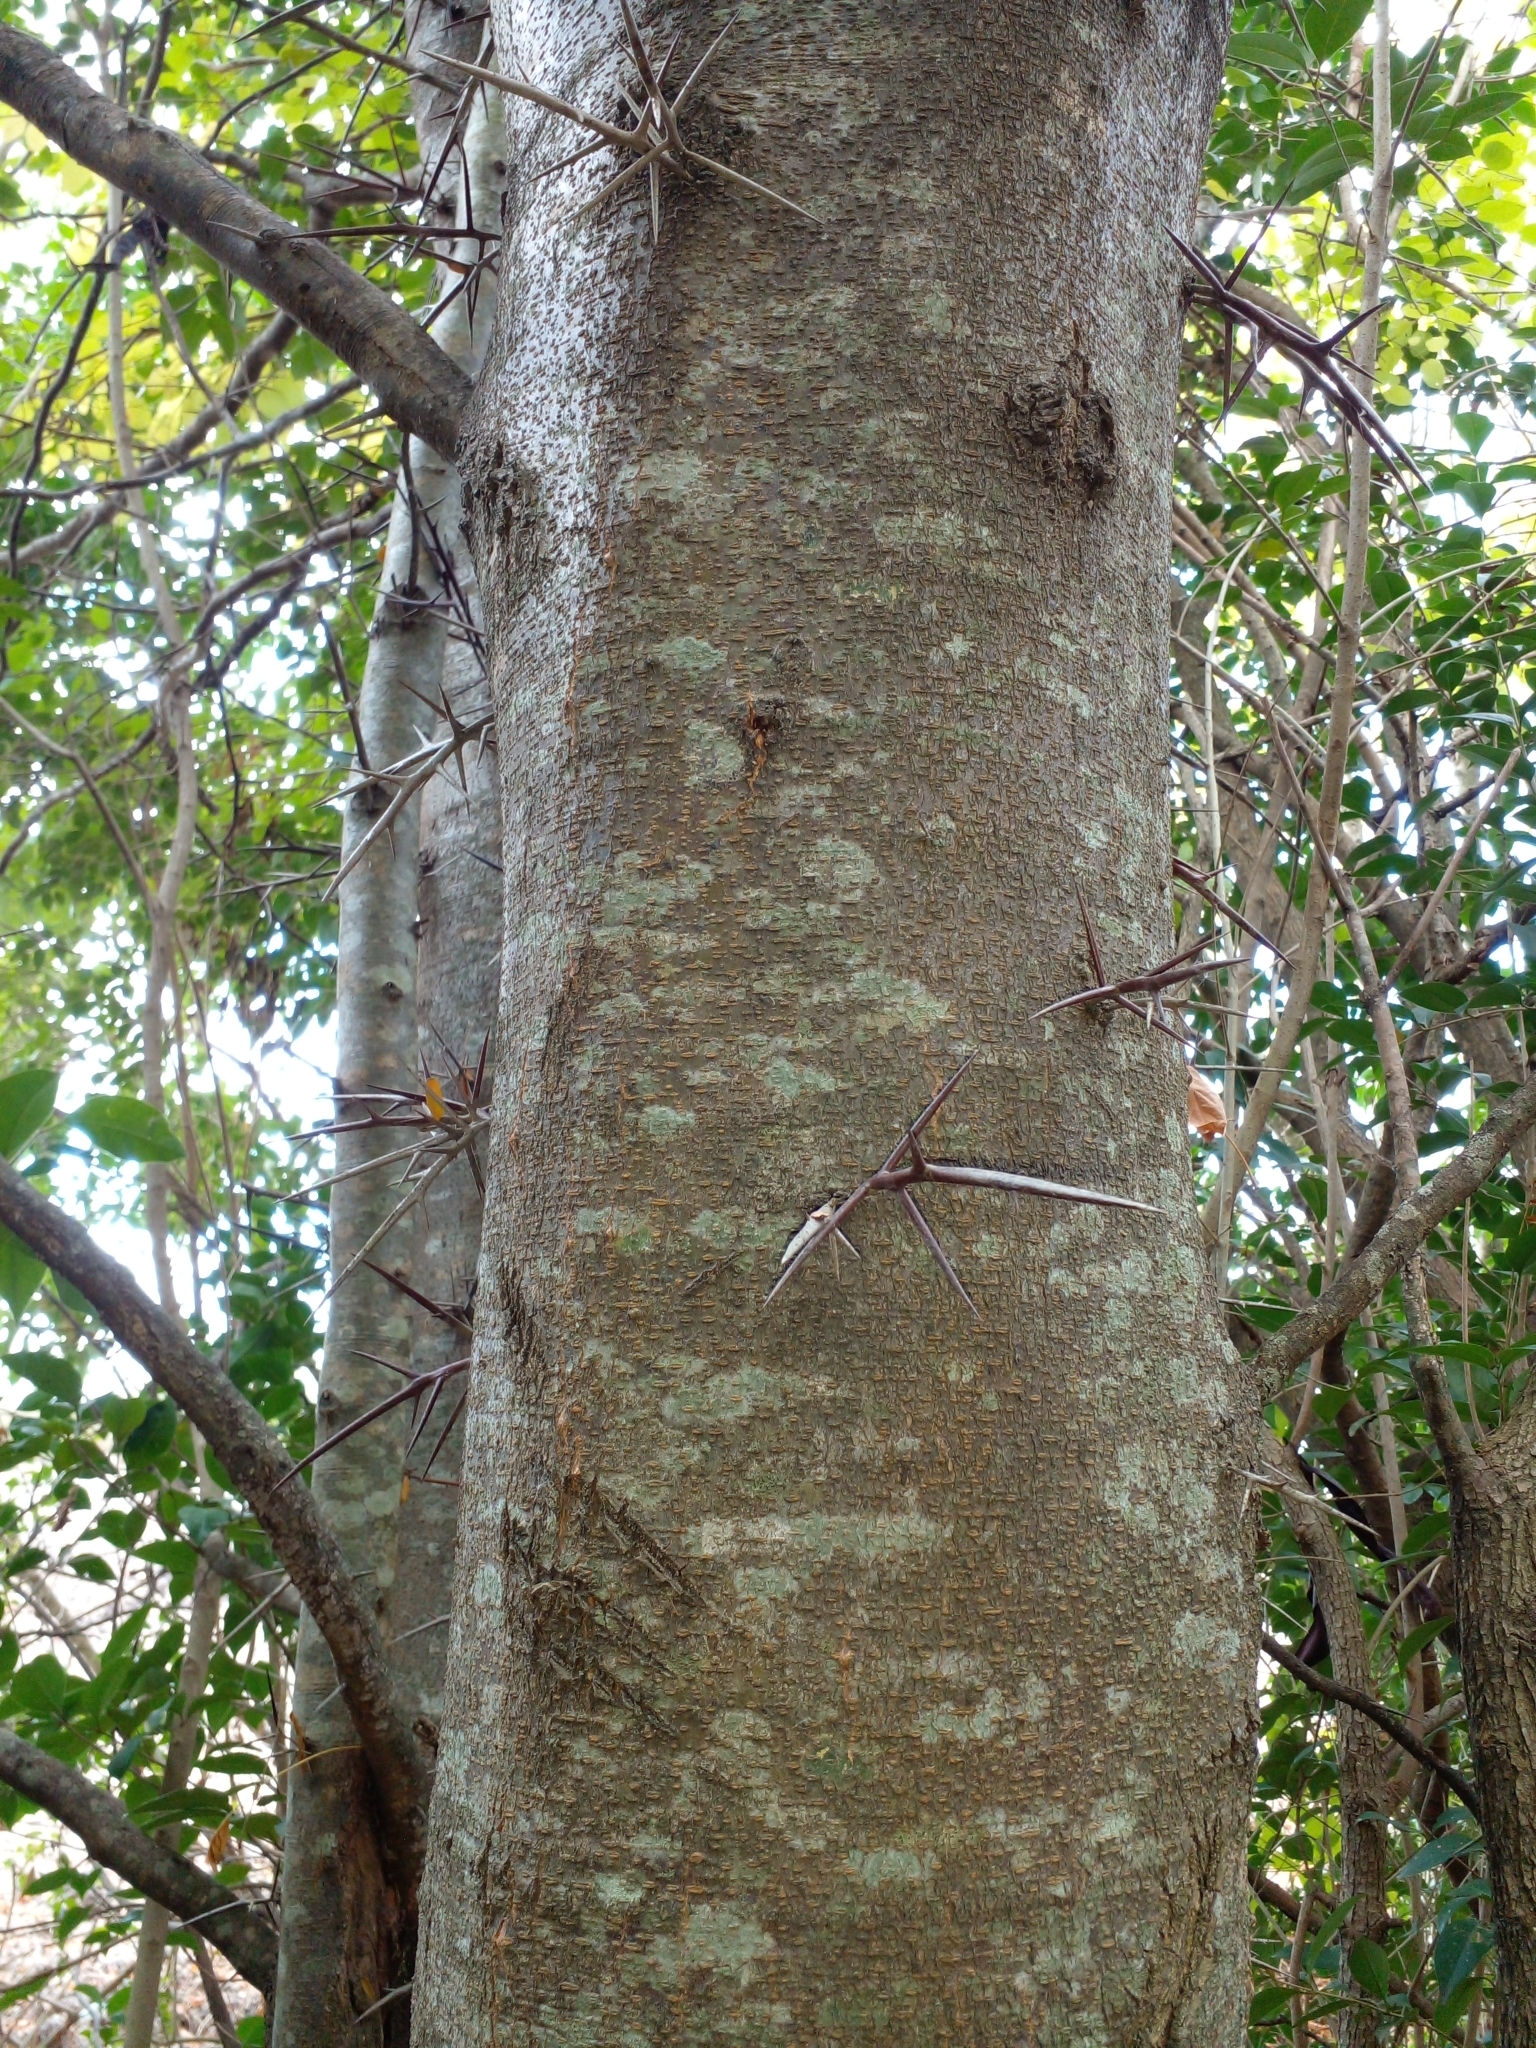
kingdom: Plantae
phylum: Tracheophyta
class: Magnoliopsida
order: Fabales
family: Fabaceae
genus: Gleditsia
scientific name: Gleditsia triacanthos
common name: Common honeylocust
